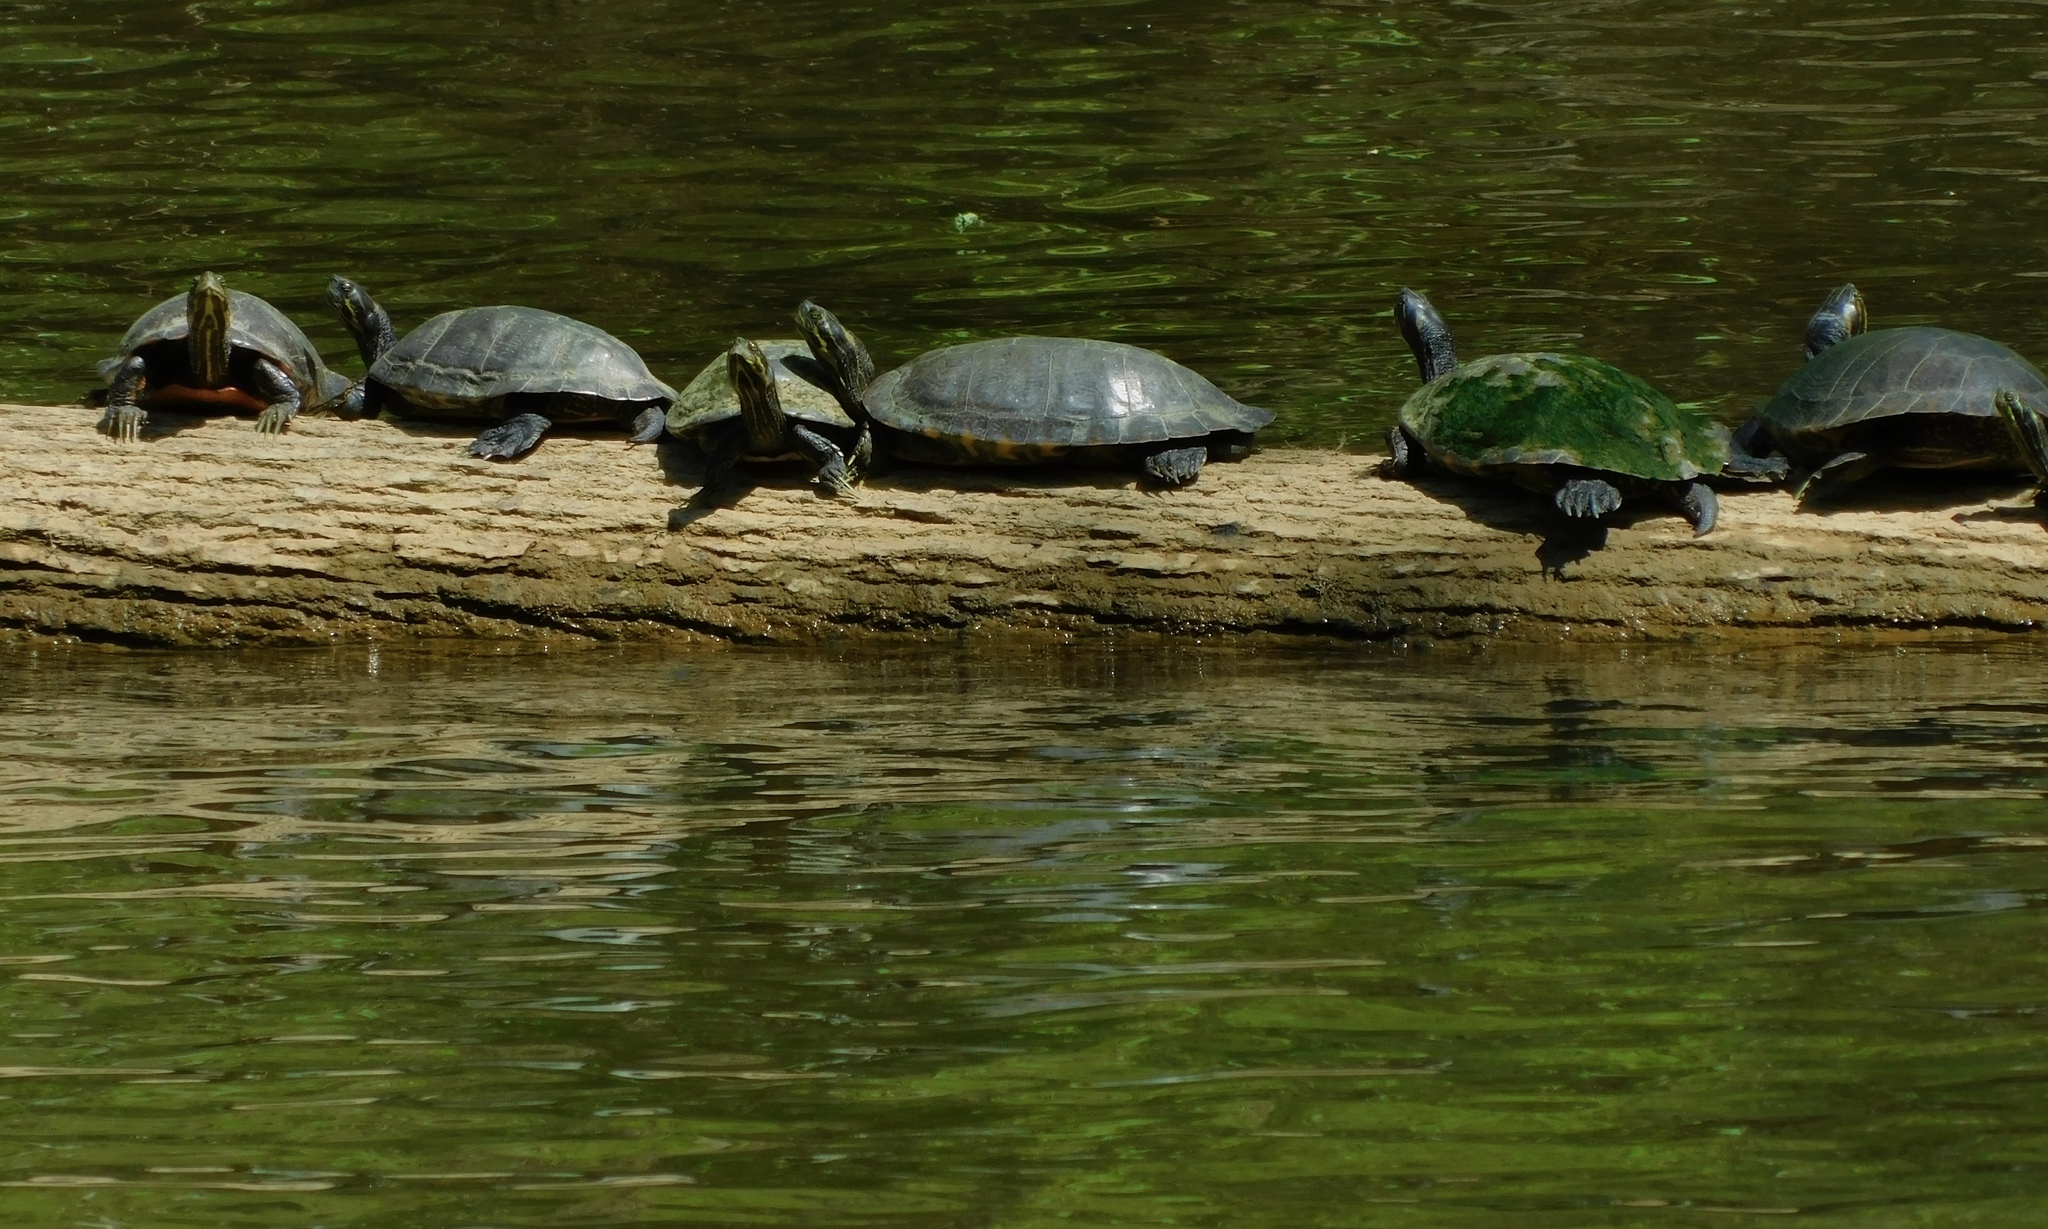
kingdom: Animalia
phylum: Chordata
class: Testudines
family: Emydidae
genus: Pseudemys
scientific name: Pseudemys concinna
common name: Eastern river cooter
